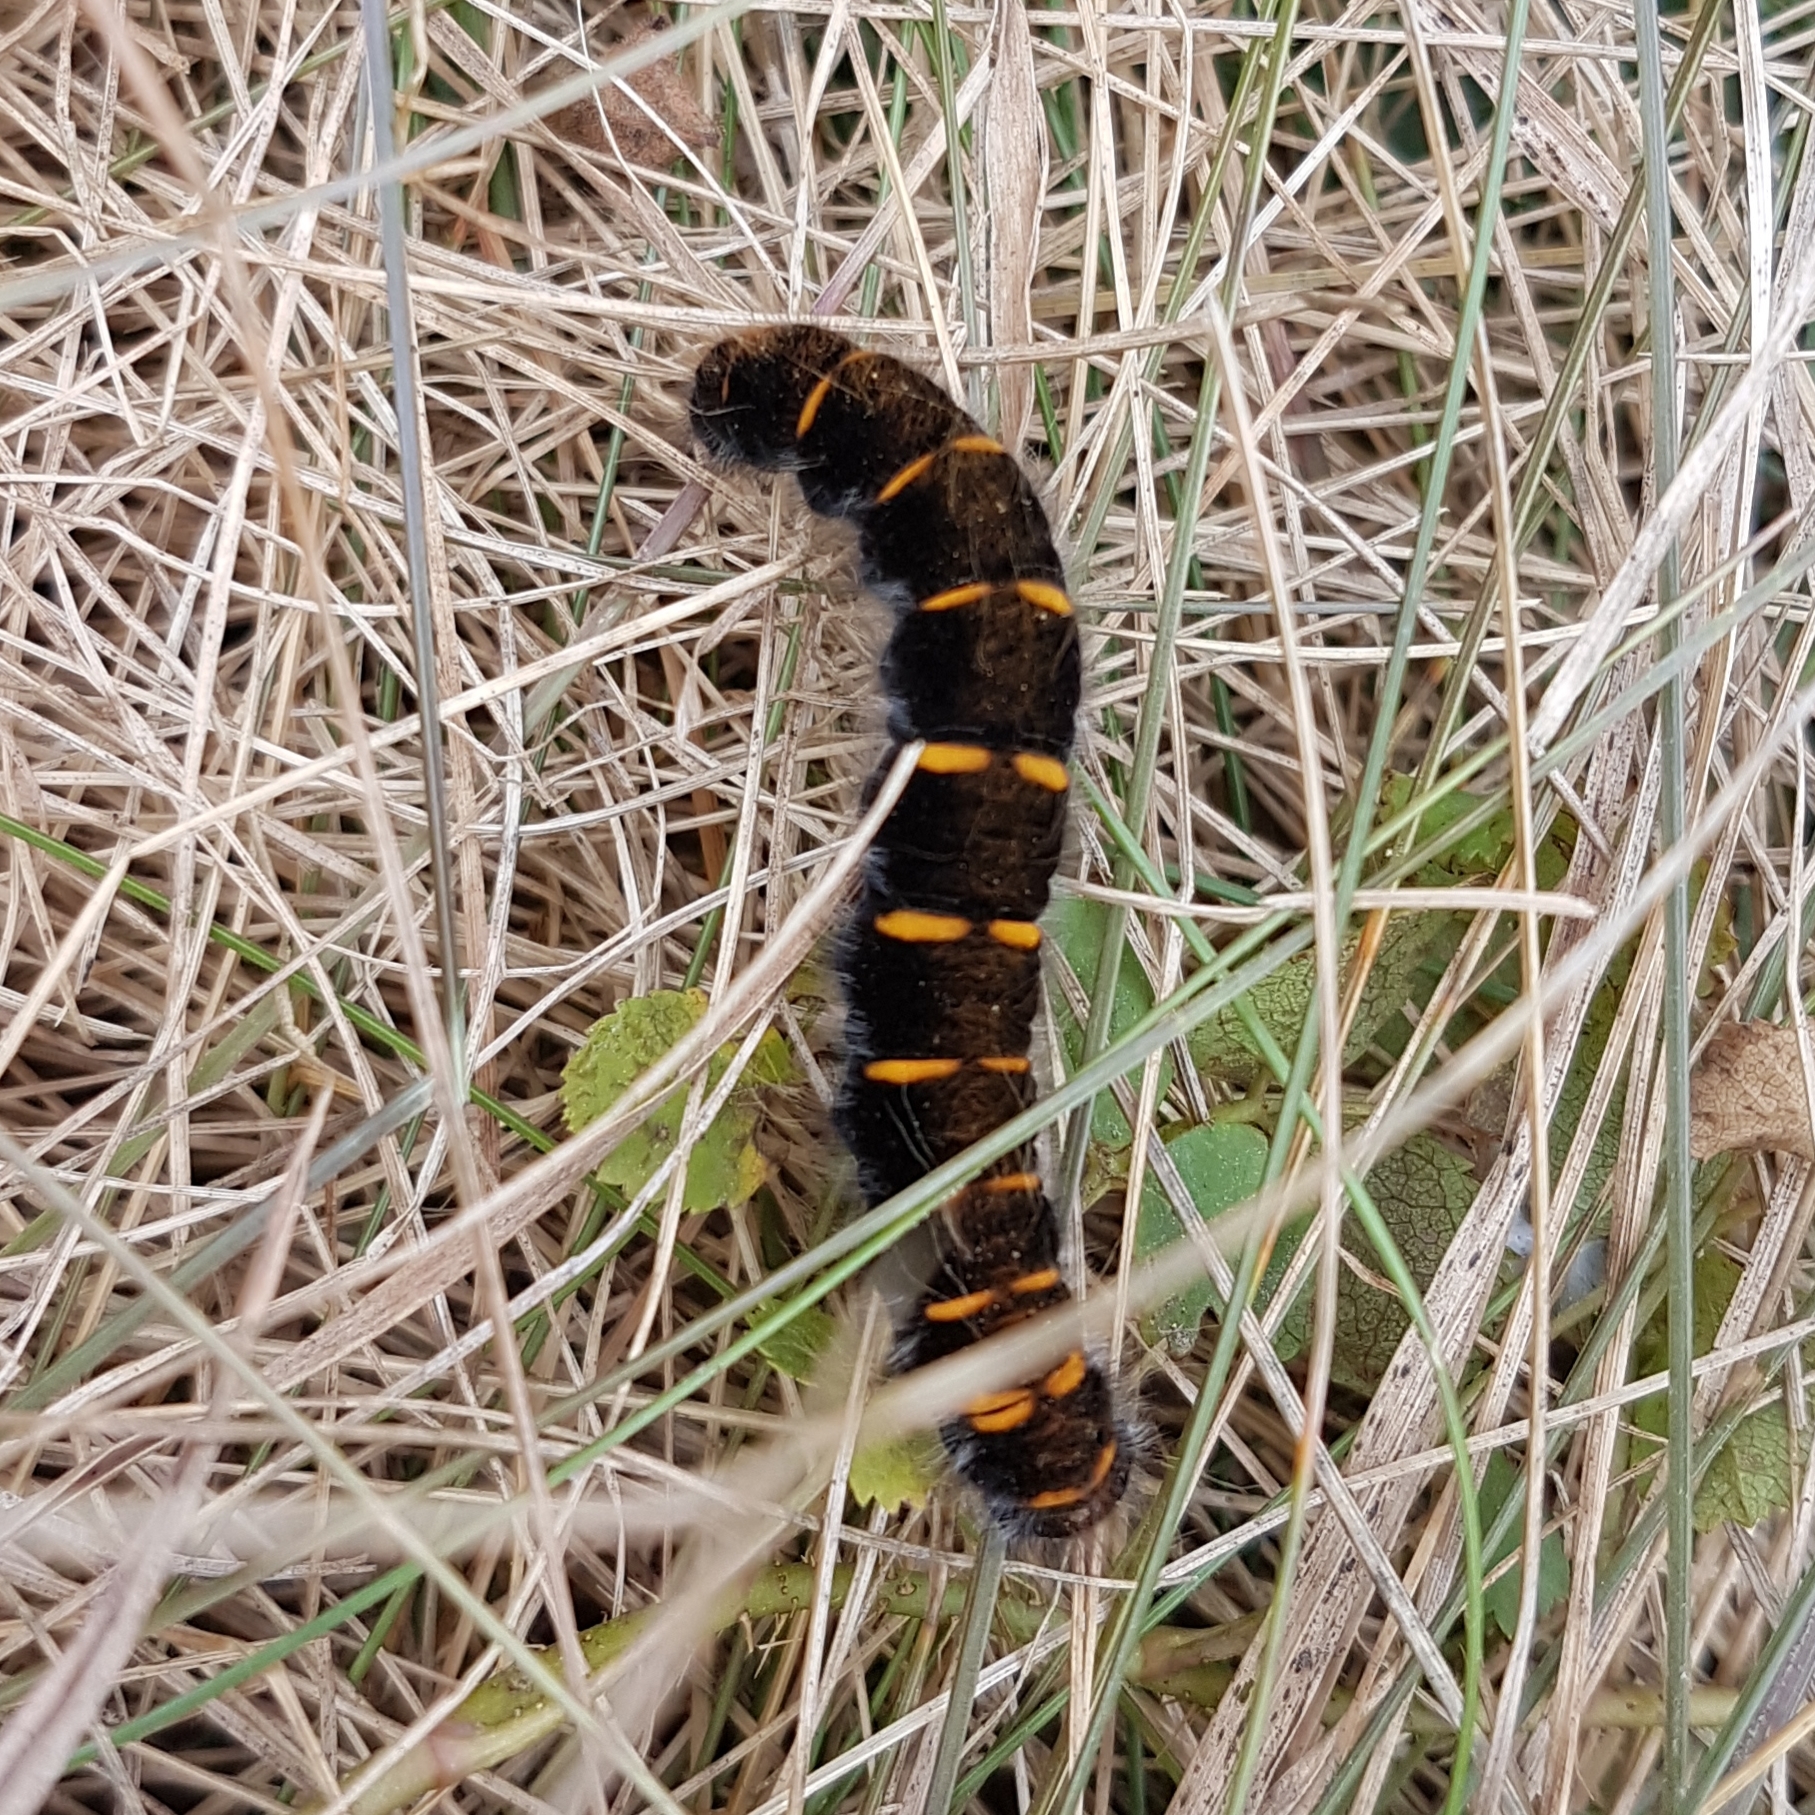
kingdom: Animalia
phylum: Arthropoda
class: Insecta
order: Lepidoptera
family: Lasiocampidae
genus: Macrothylacia
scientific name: Macrothylacia rubi
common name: Fox moth
